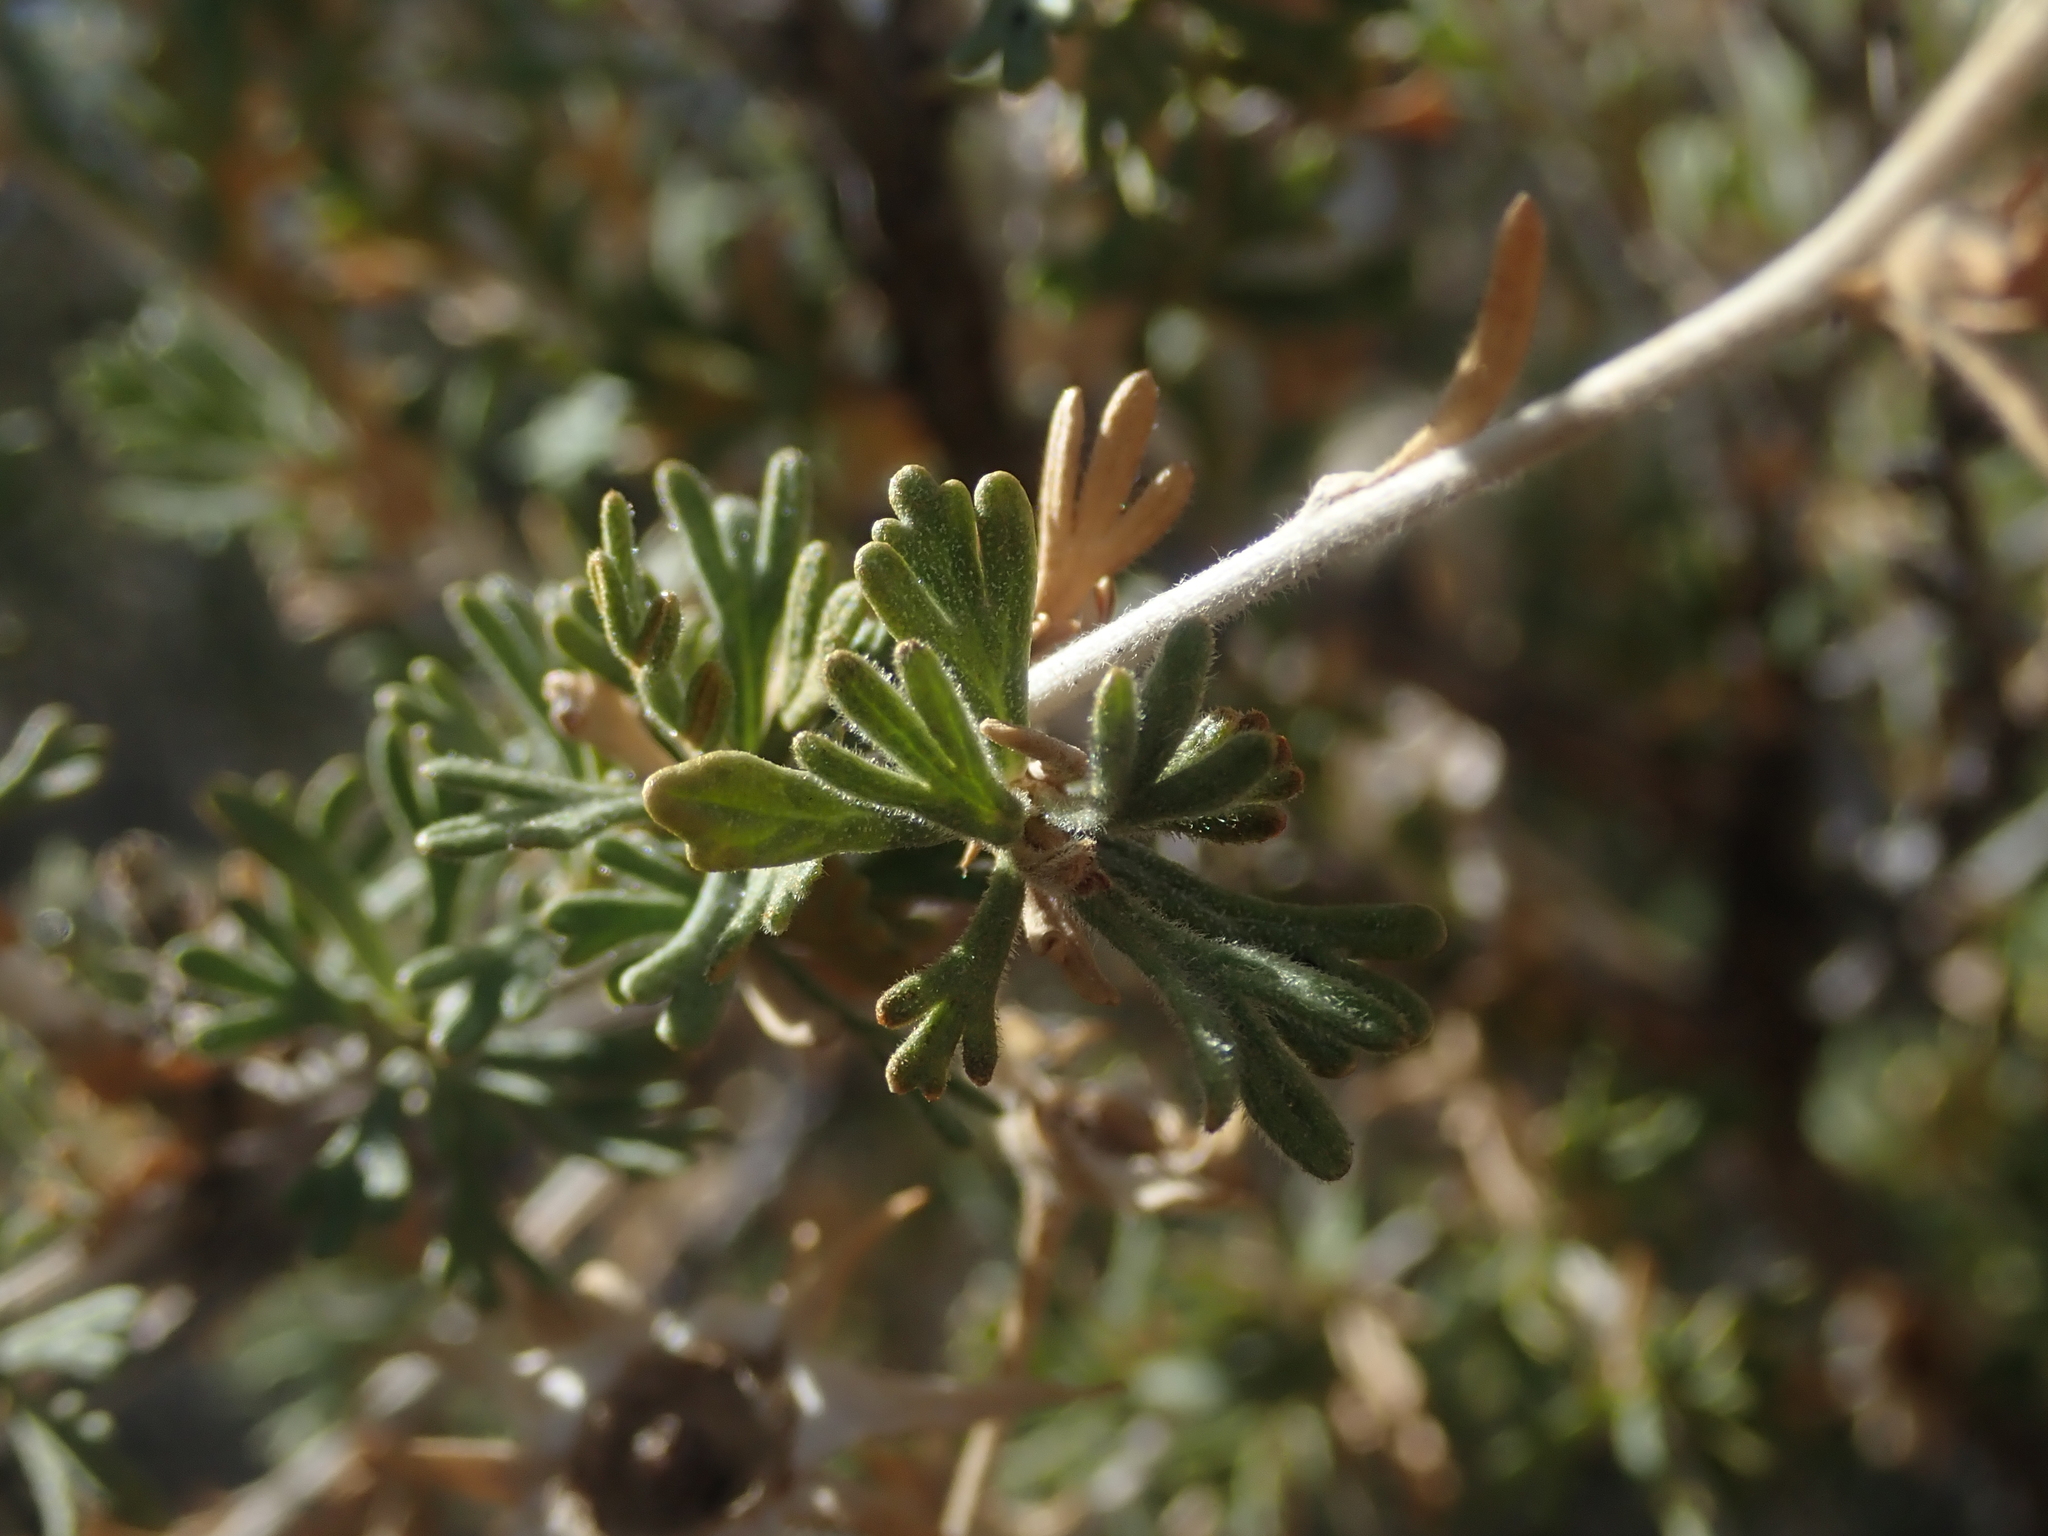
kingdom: Plantae
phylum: Tracheophyta
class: Magnoliopsida
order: Rosales
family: Rosaceae
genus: Fallugia
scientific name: Fallugia paradoxa
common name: Apache-plume
